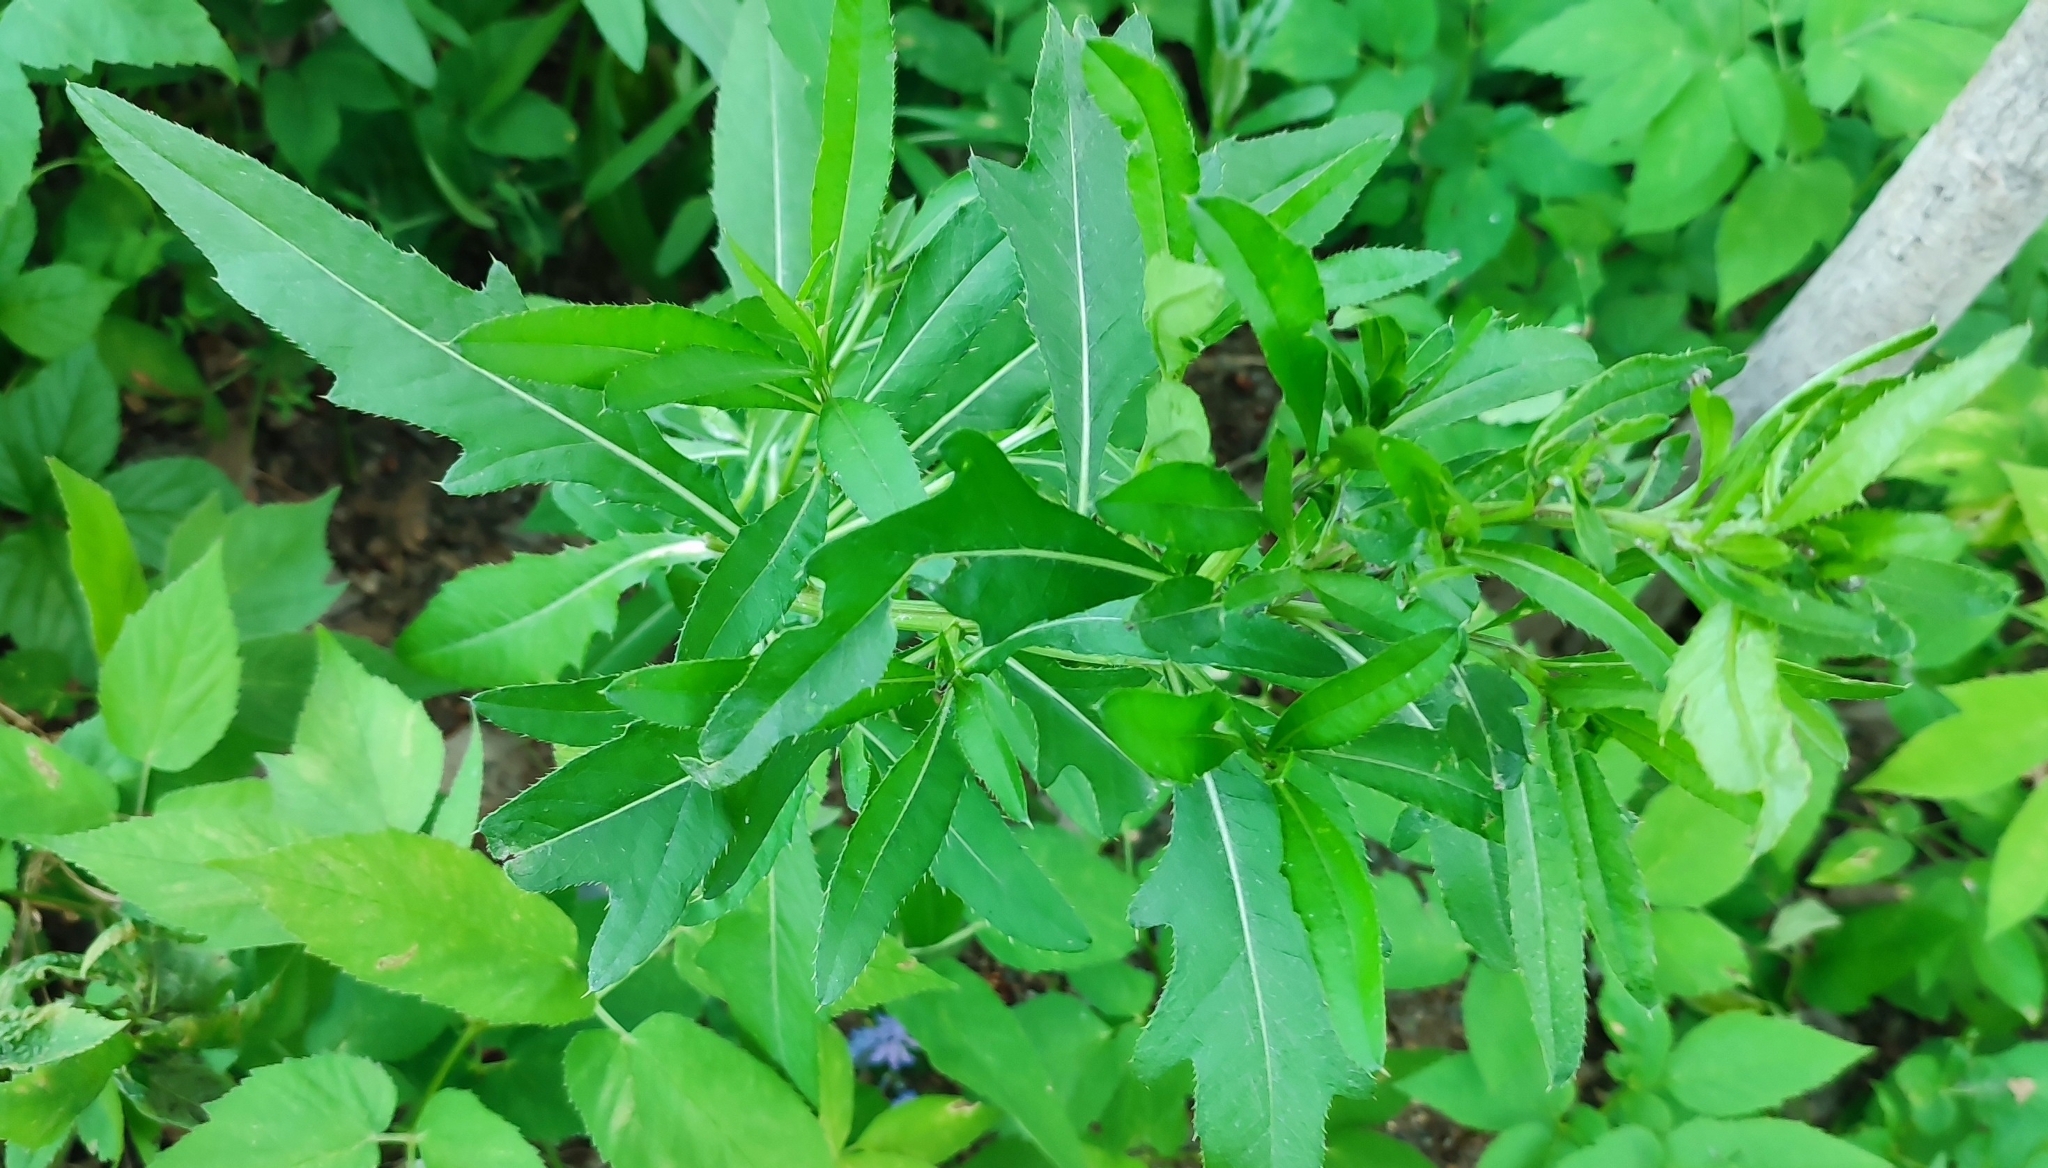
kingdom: Plantae
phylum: Tracheophyta
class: Magnoliopsida
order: Asterales
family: Asteraceae
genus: Cirsium
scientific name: Cirsium arvense
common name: Creeping thistle
